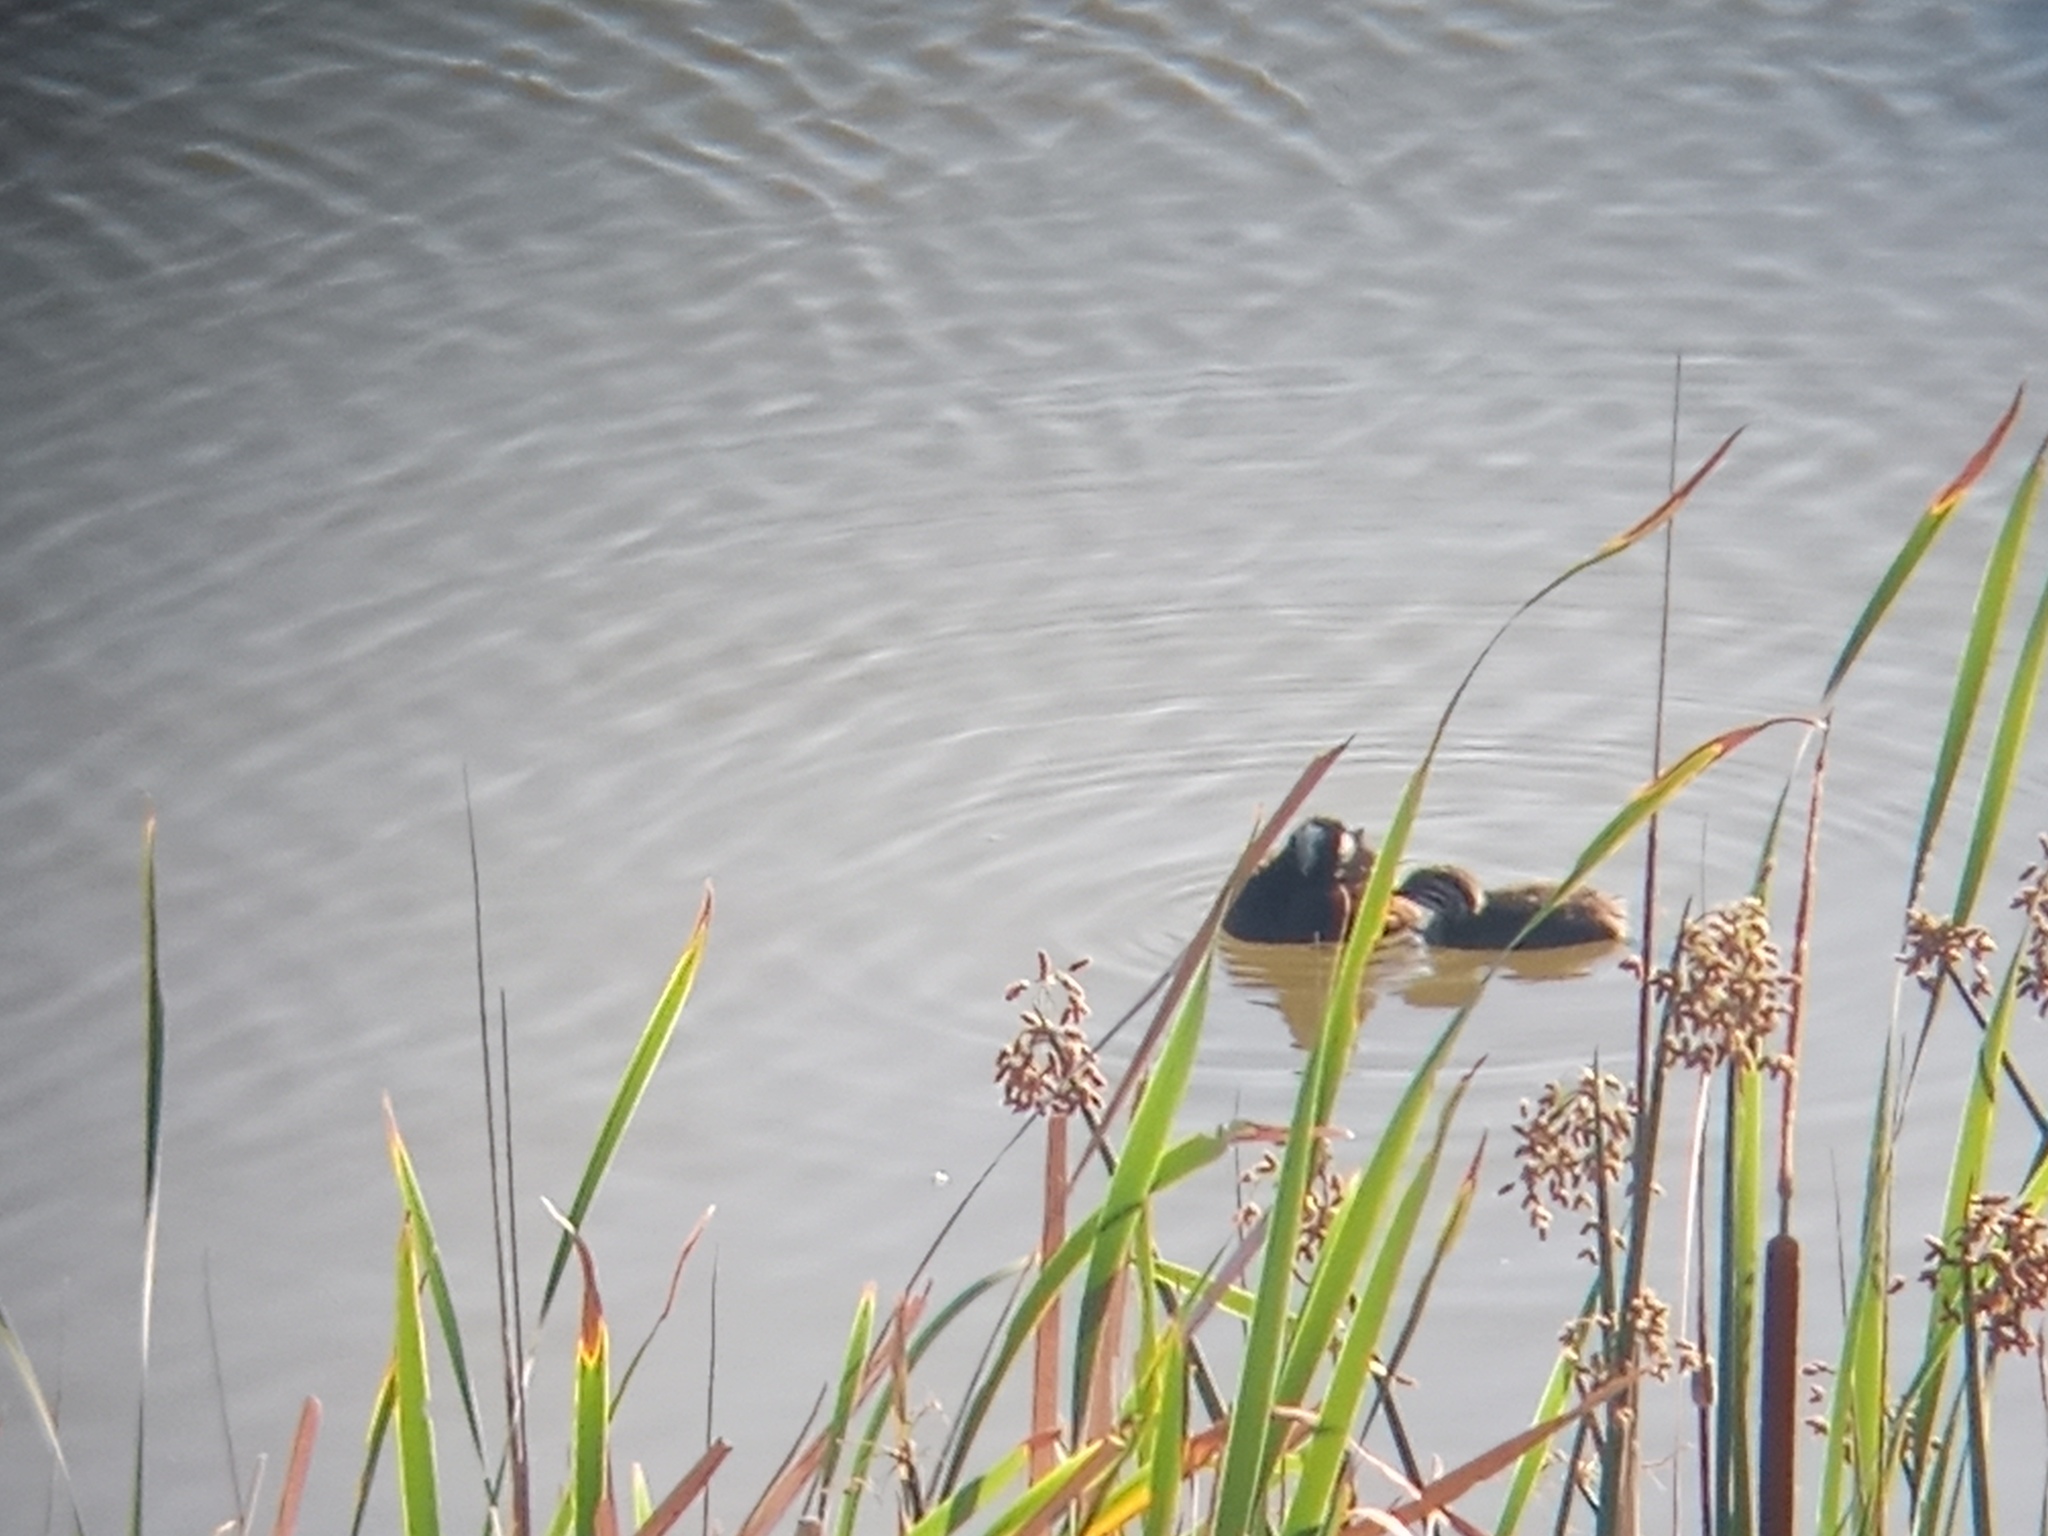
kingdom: Animalia
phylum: Chordata
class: Aves
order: Podicipediformes
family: Podicipedidae
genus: Rollandia
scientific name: Rollandia rolland
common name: White-tufted grebe
